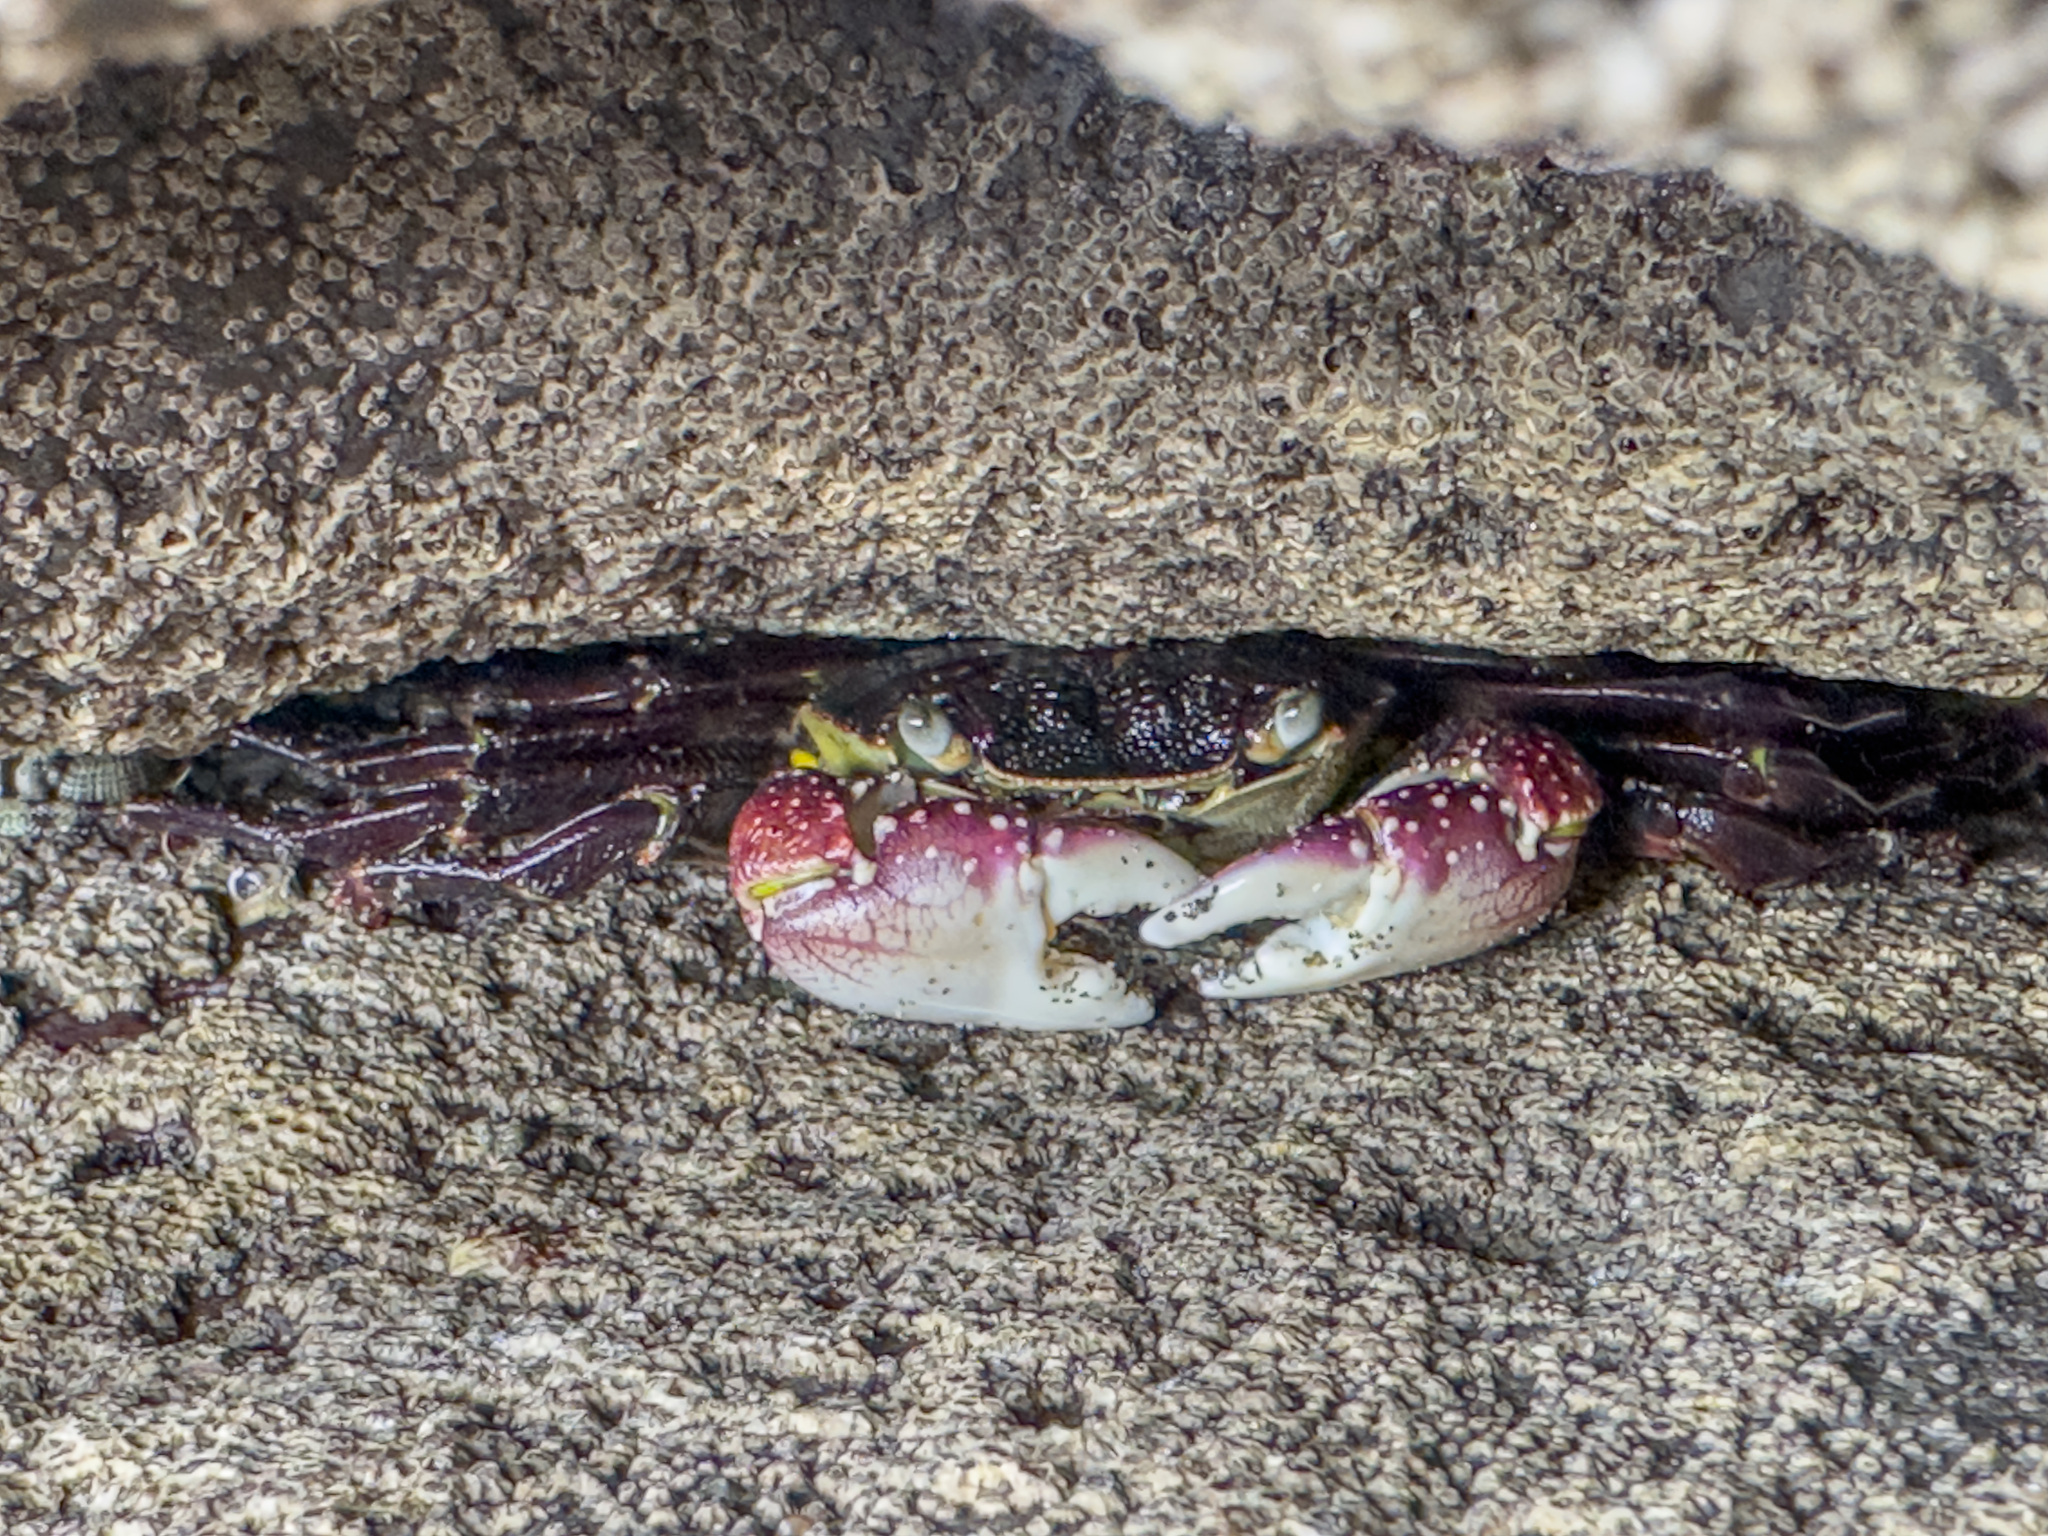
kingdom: Animalia
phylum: Arthropoda
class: Malacostraca
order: Decapoda
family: Grapsidae
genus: Leptograpsus
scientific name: Leptograpsus variegatus
